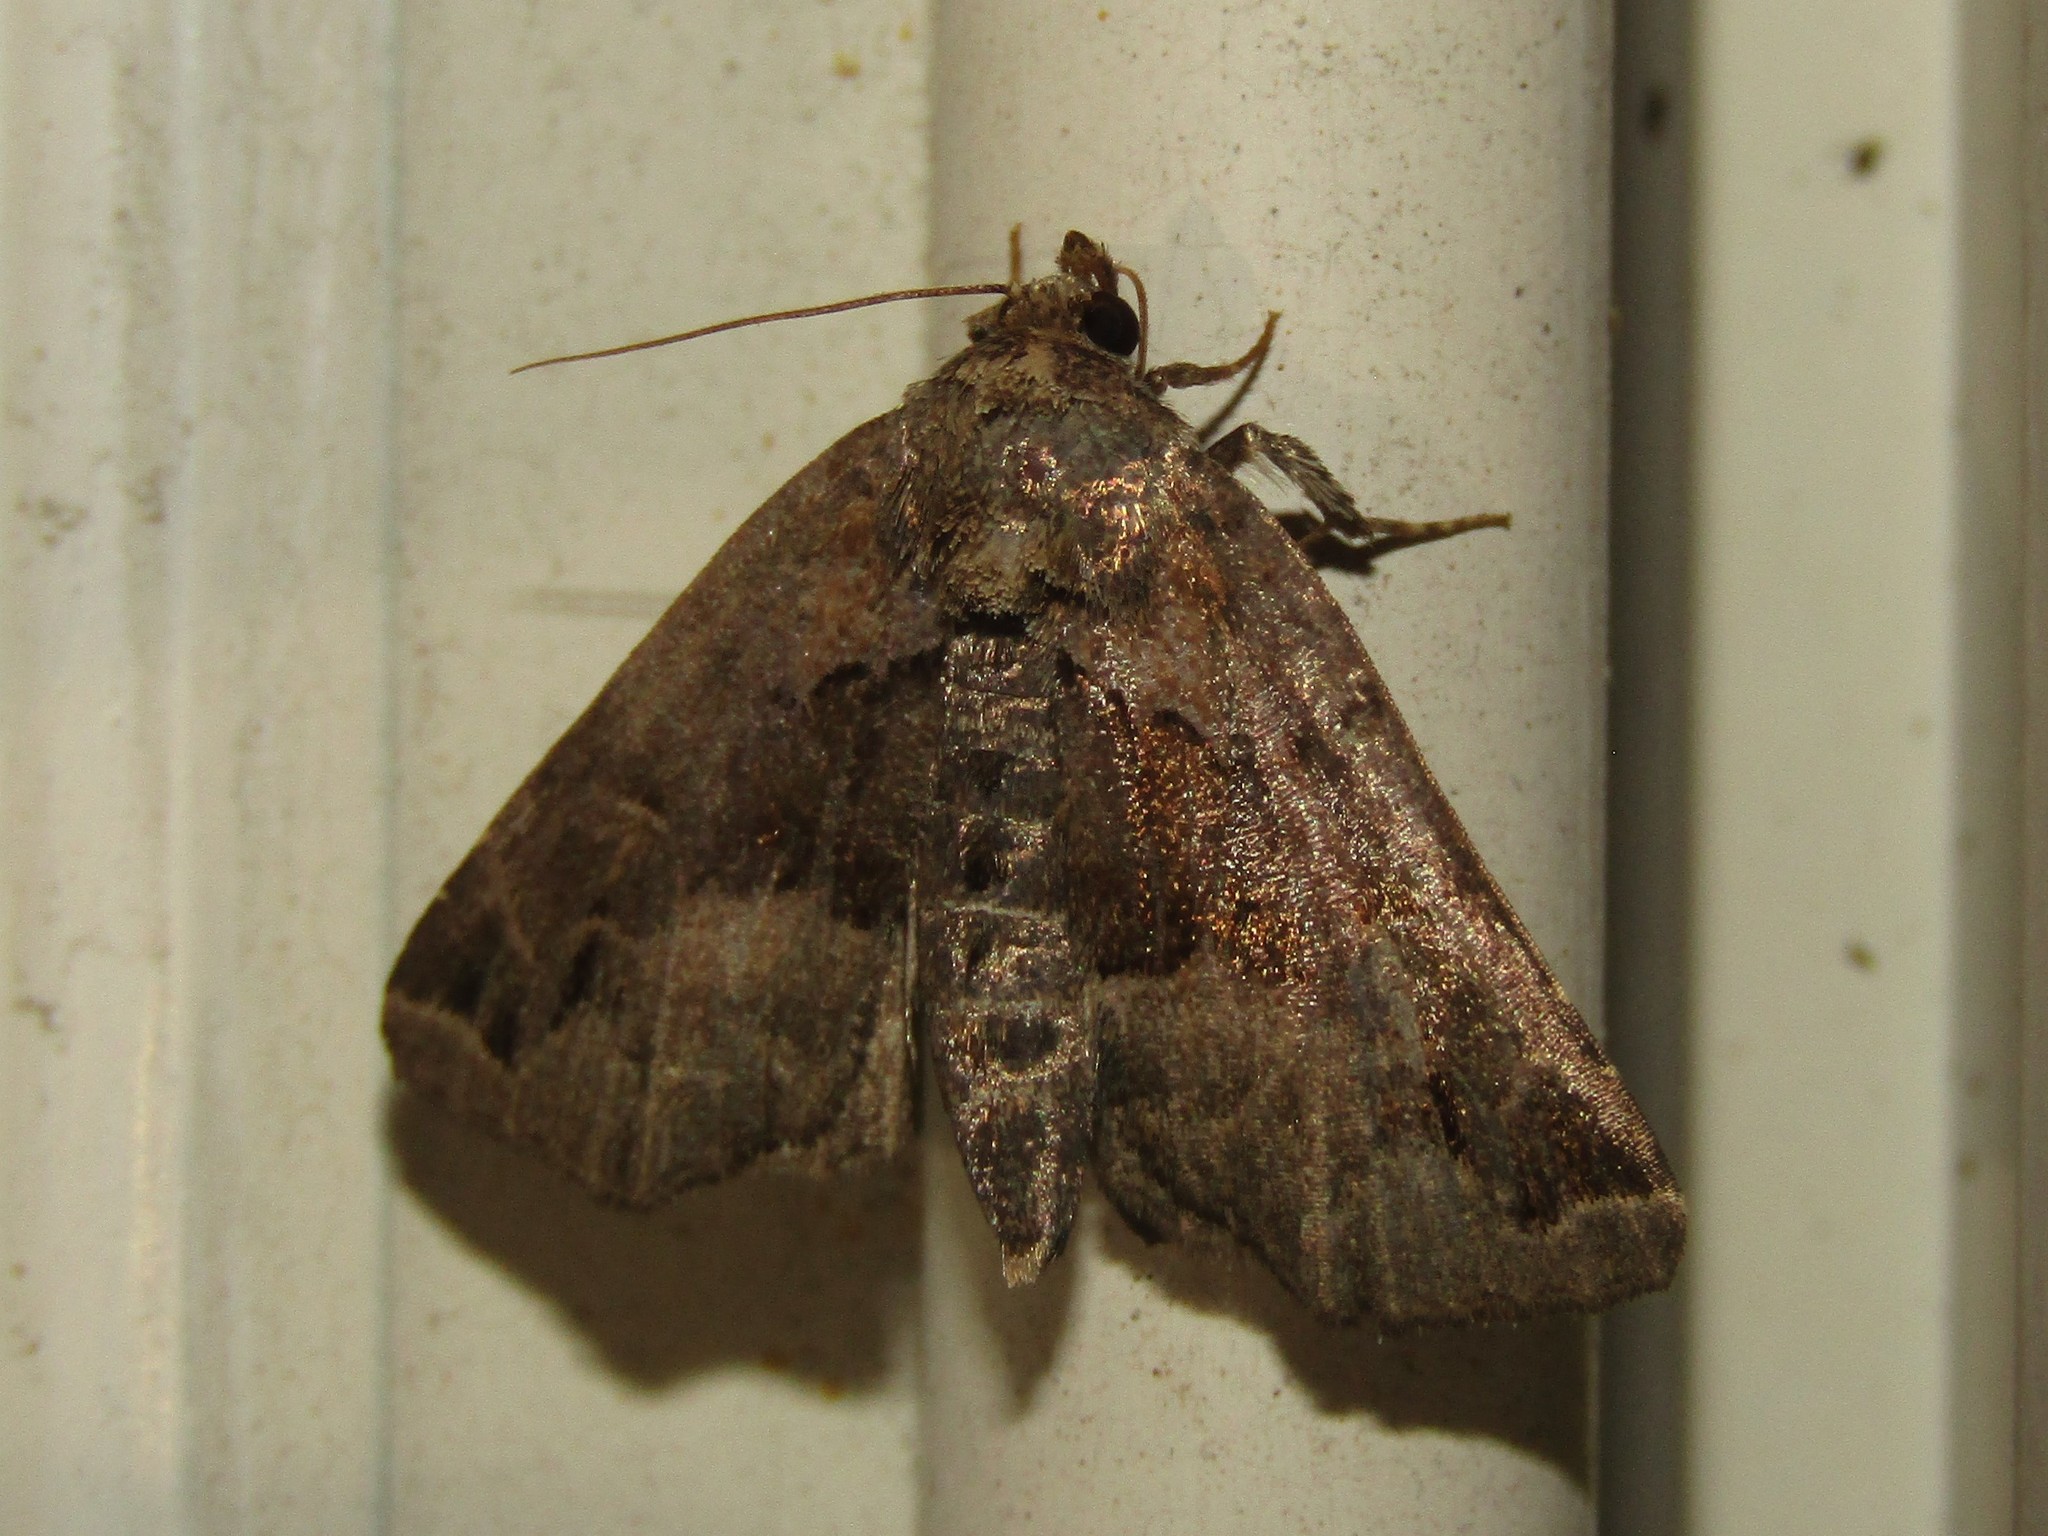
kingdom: Animalia
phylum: Arthropoda
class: Insecta
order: Lepidoptera
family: Noctuidae
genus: Niphonyx
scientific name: Niphonyx segregata
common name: Hops angleshade moth
